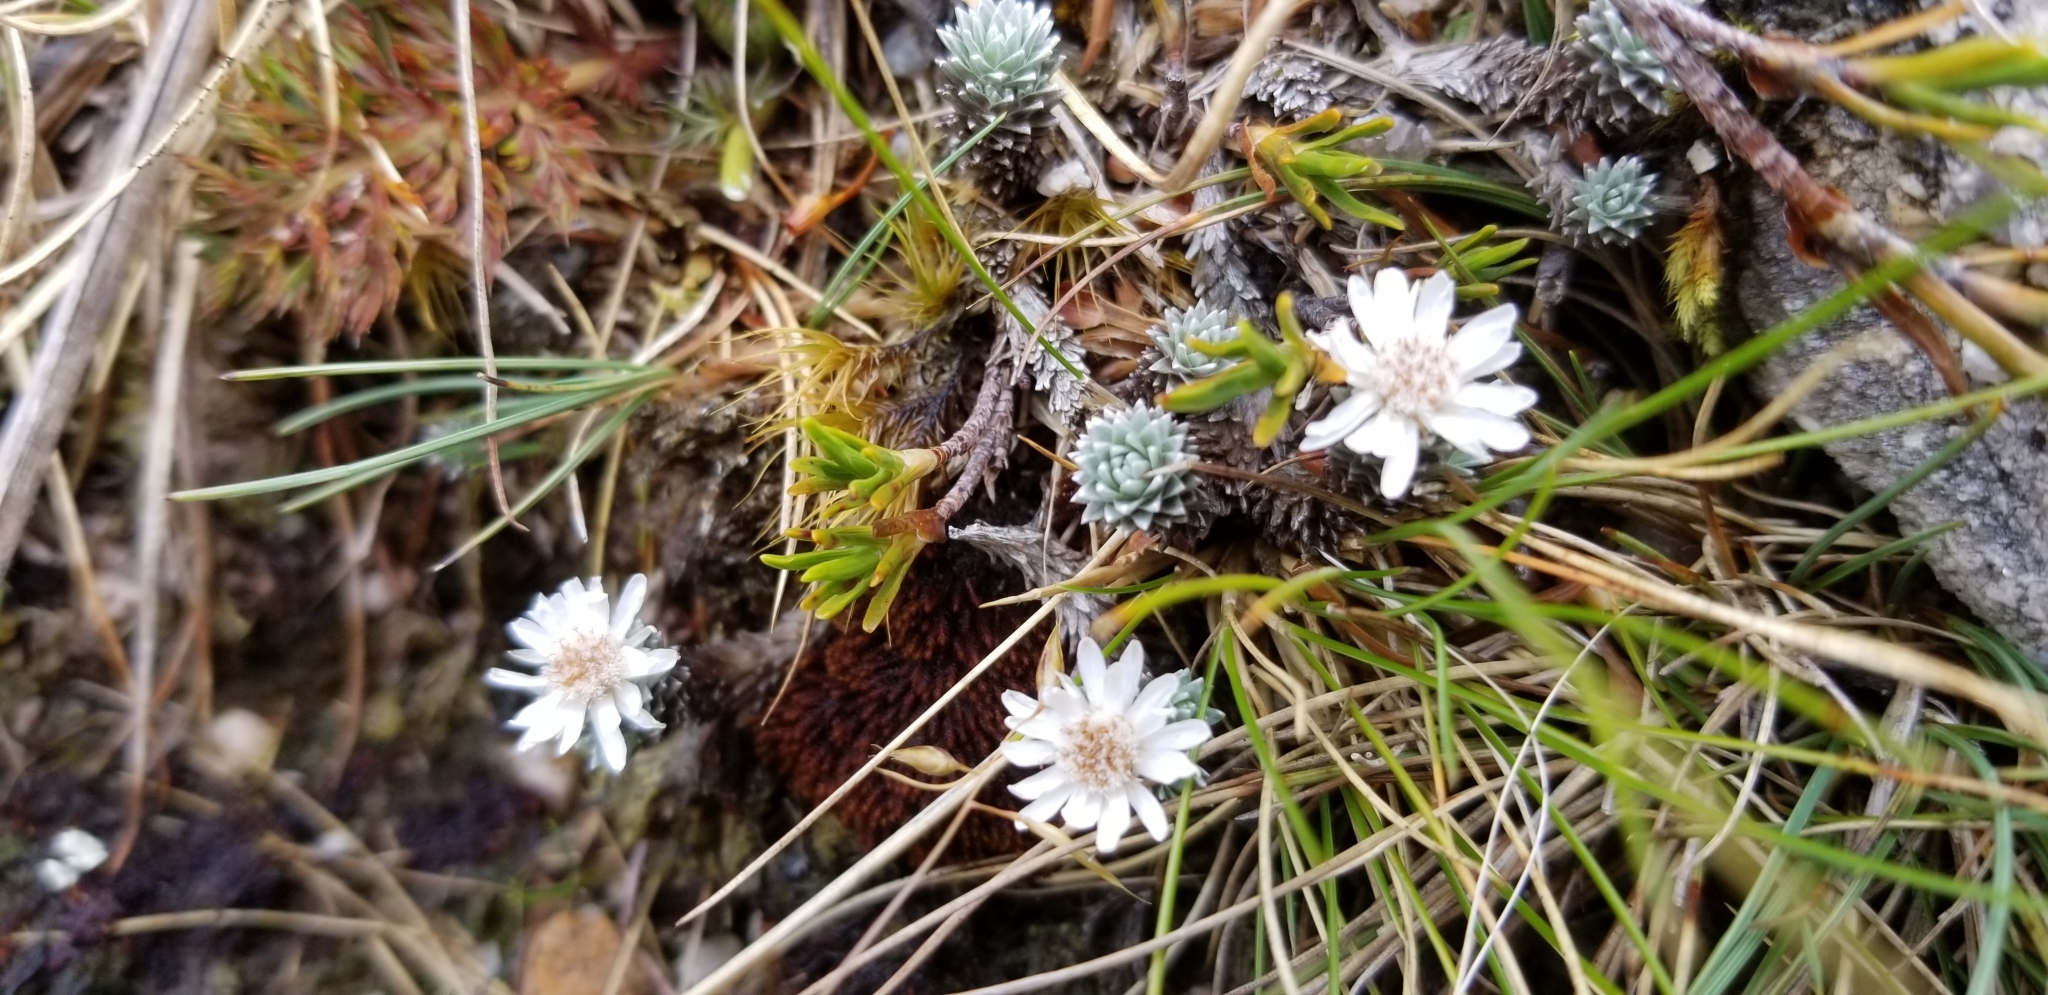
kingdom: Plantae
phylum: Tracheophyta
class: Magnoliopsida
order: Asterales
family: Asteraceae
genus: Raoulia
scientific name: Raoulia grandiflora
